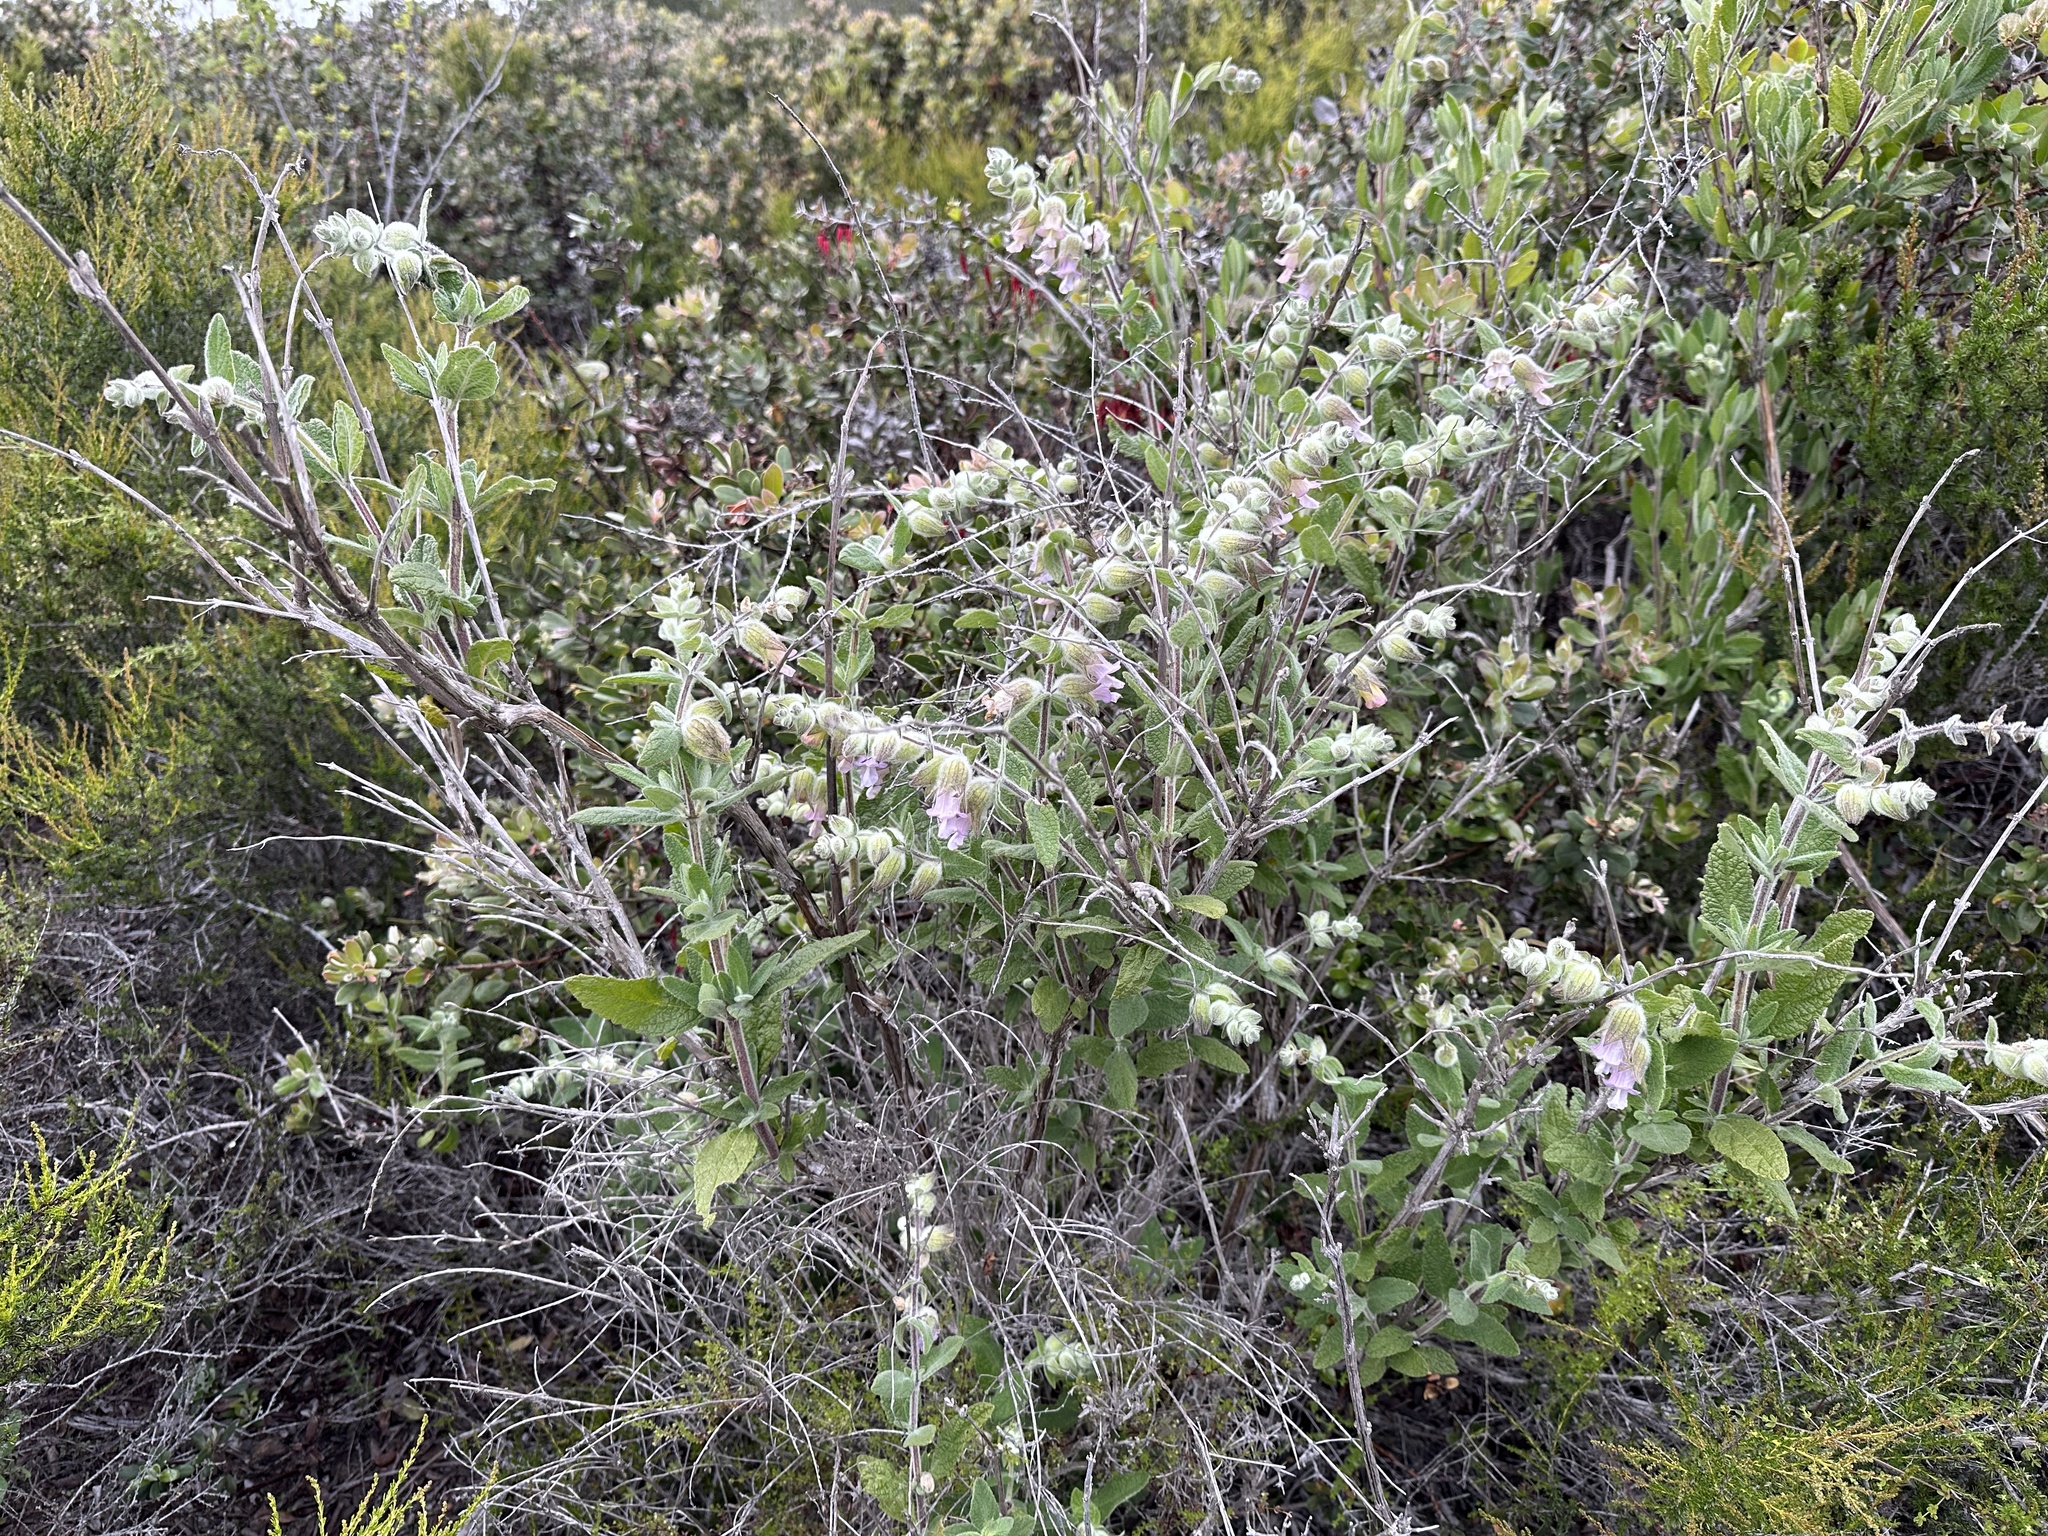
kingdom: Plantae
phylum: Tracheophyta
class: Magnoliopsida
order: Lamiales
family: Lamiaceae
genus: Lepechinia
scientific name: Lepechinia calycina
